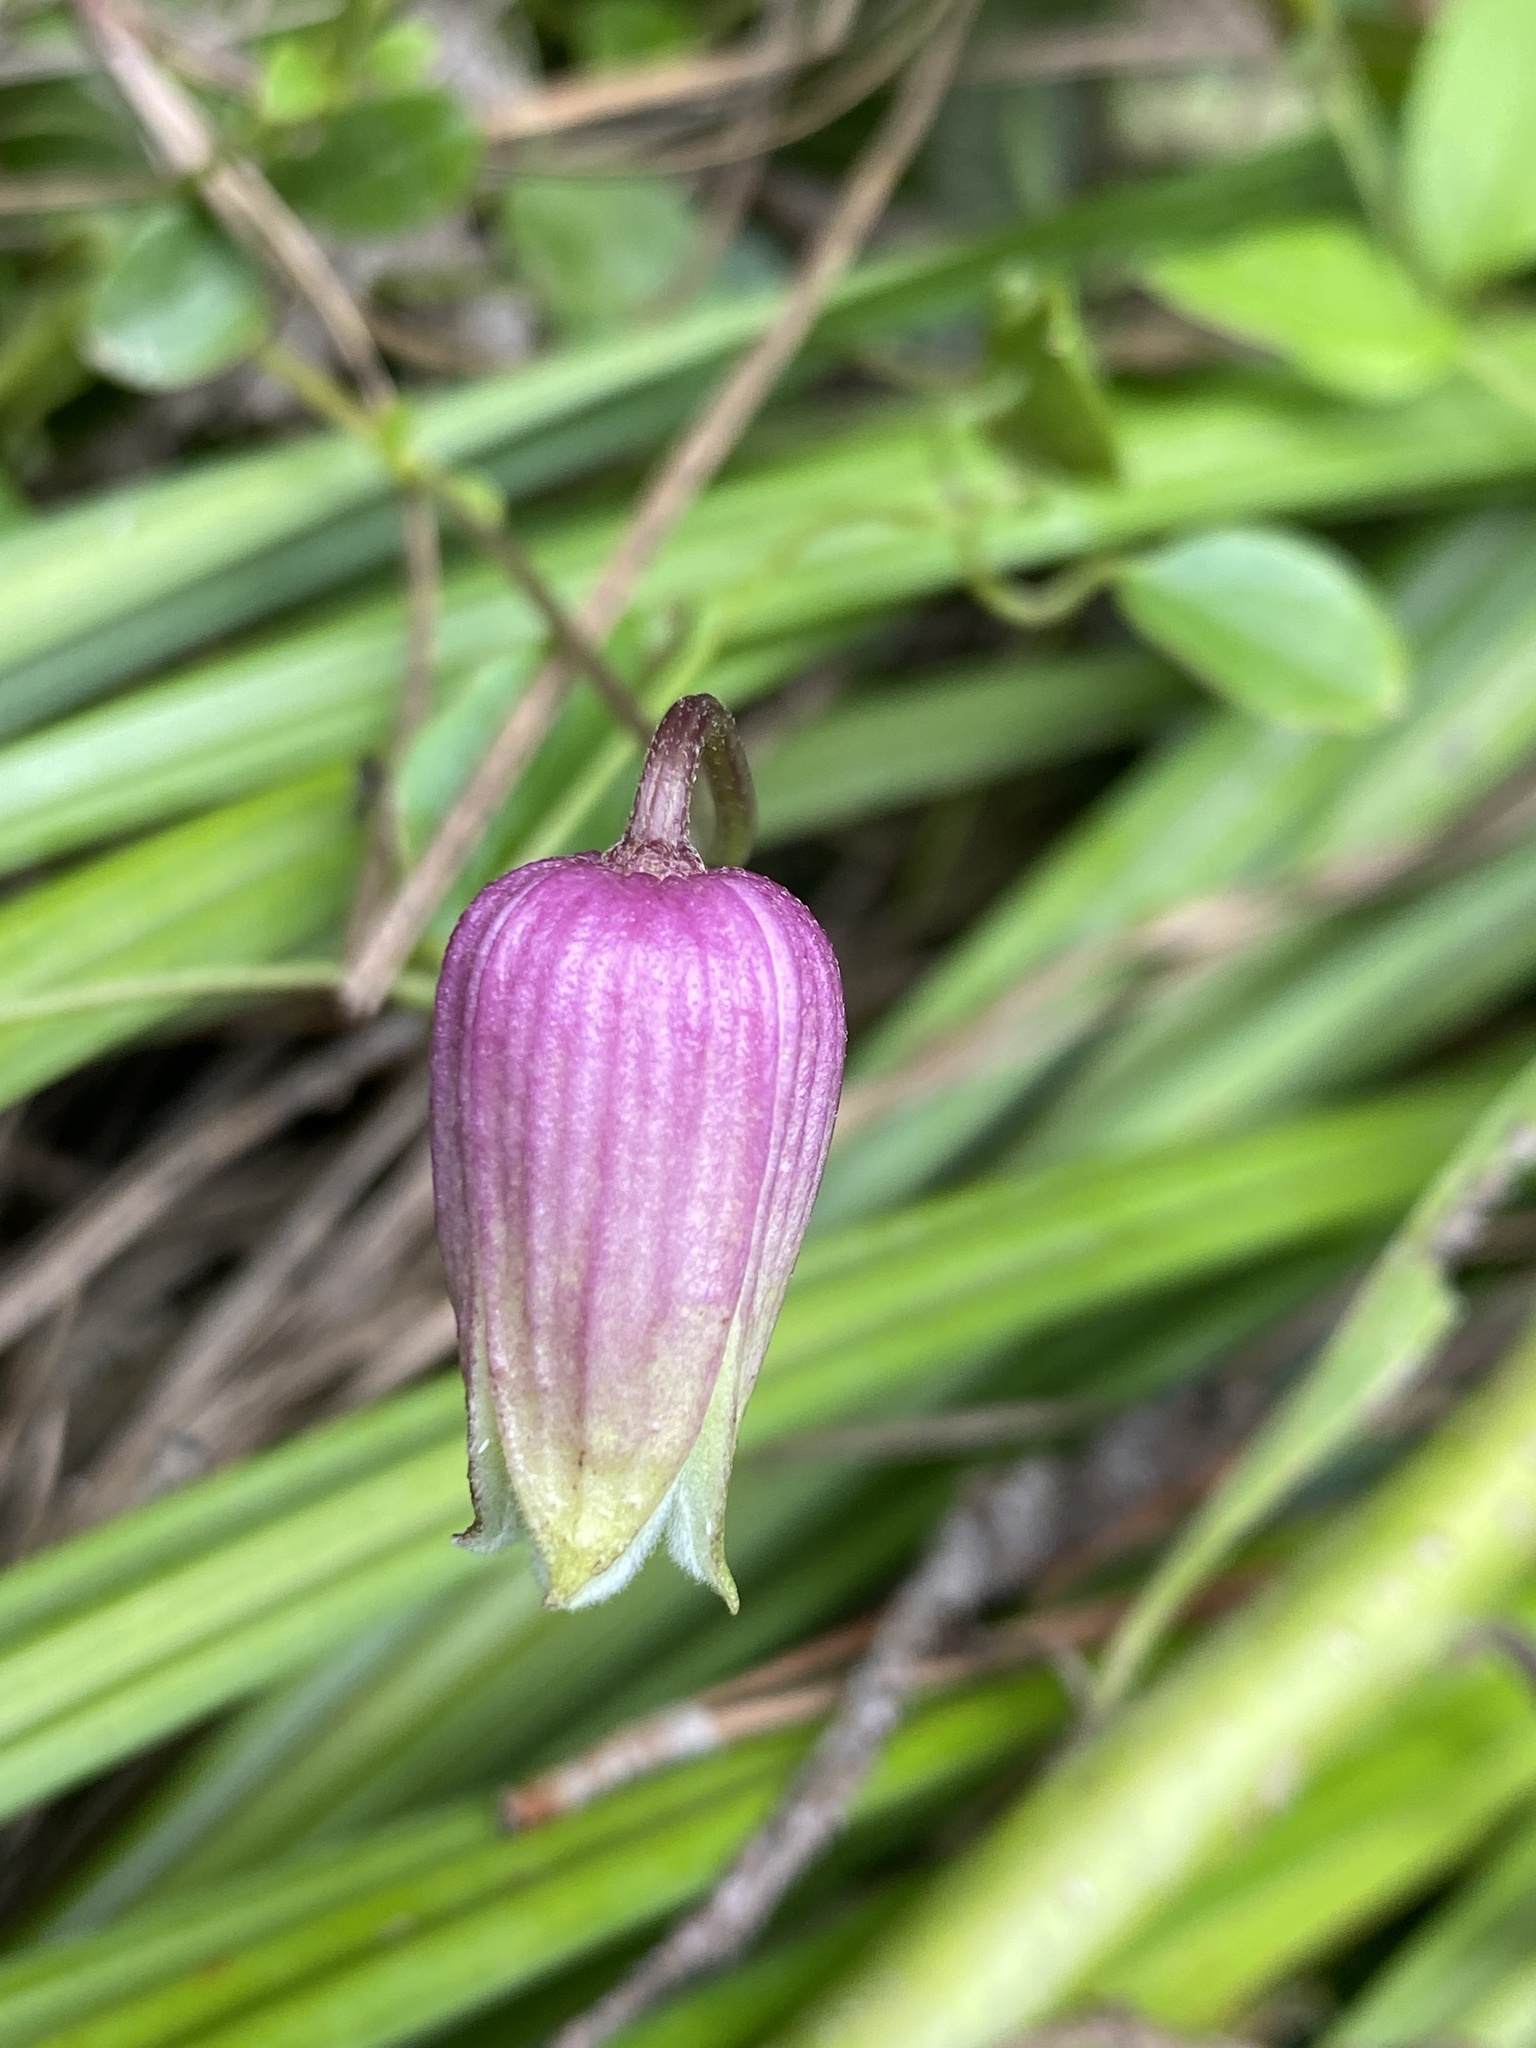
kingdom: Plantae
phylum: Tracheophyta
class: Magnoliopsida
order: Ranunculales
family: Ranunculaceae
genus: Clematis
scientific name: Clematis viorna
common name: Leather-flower
